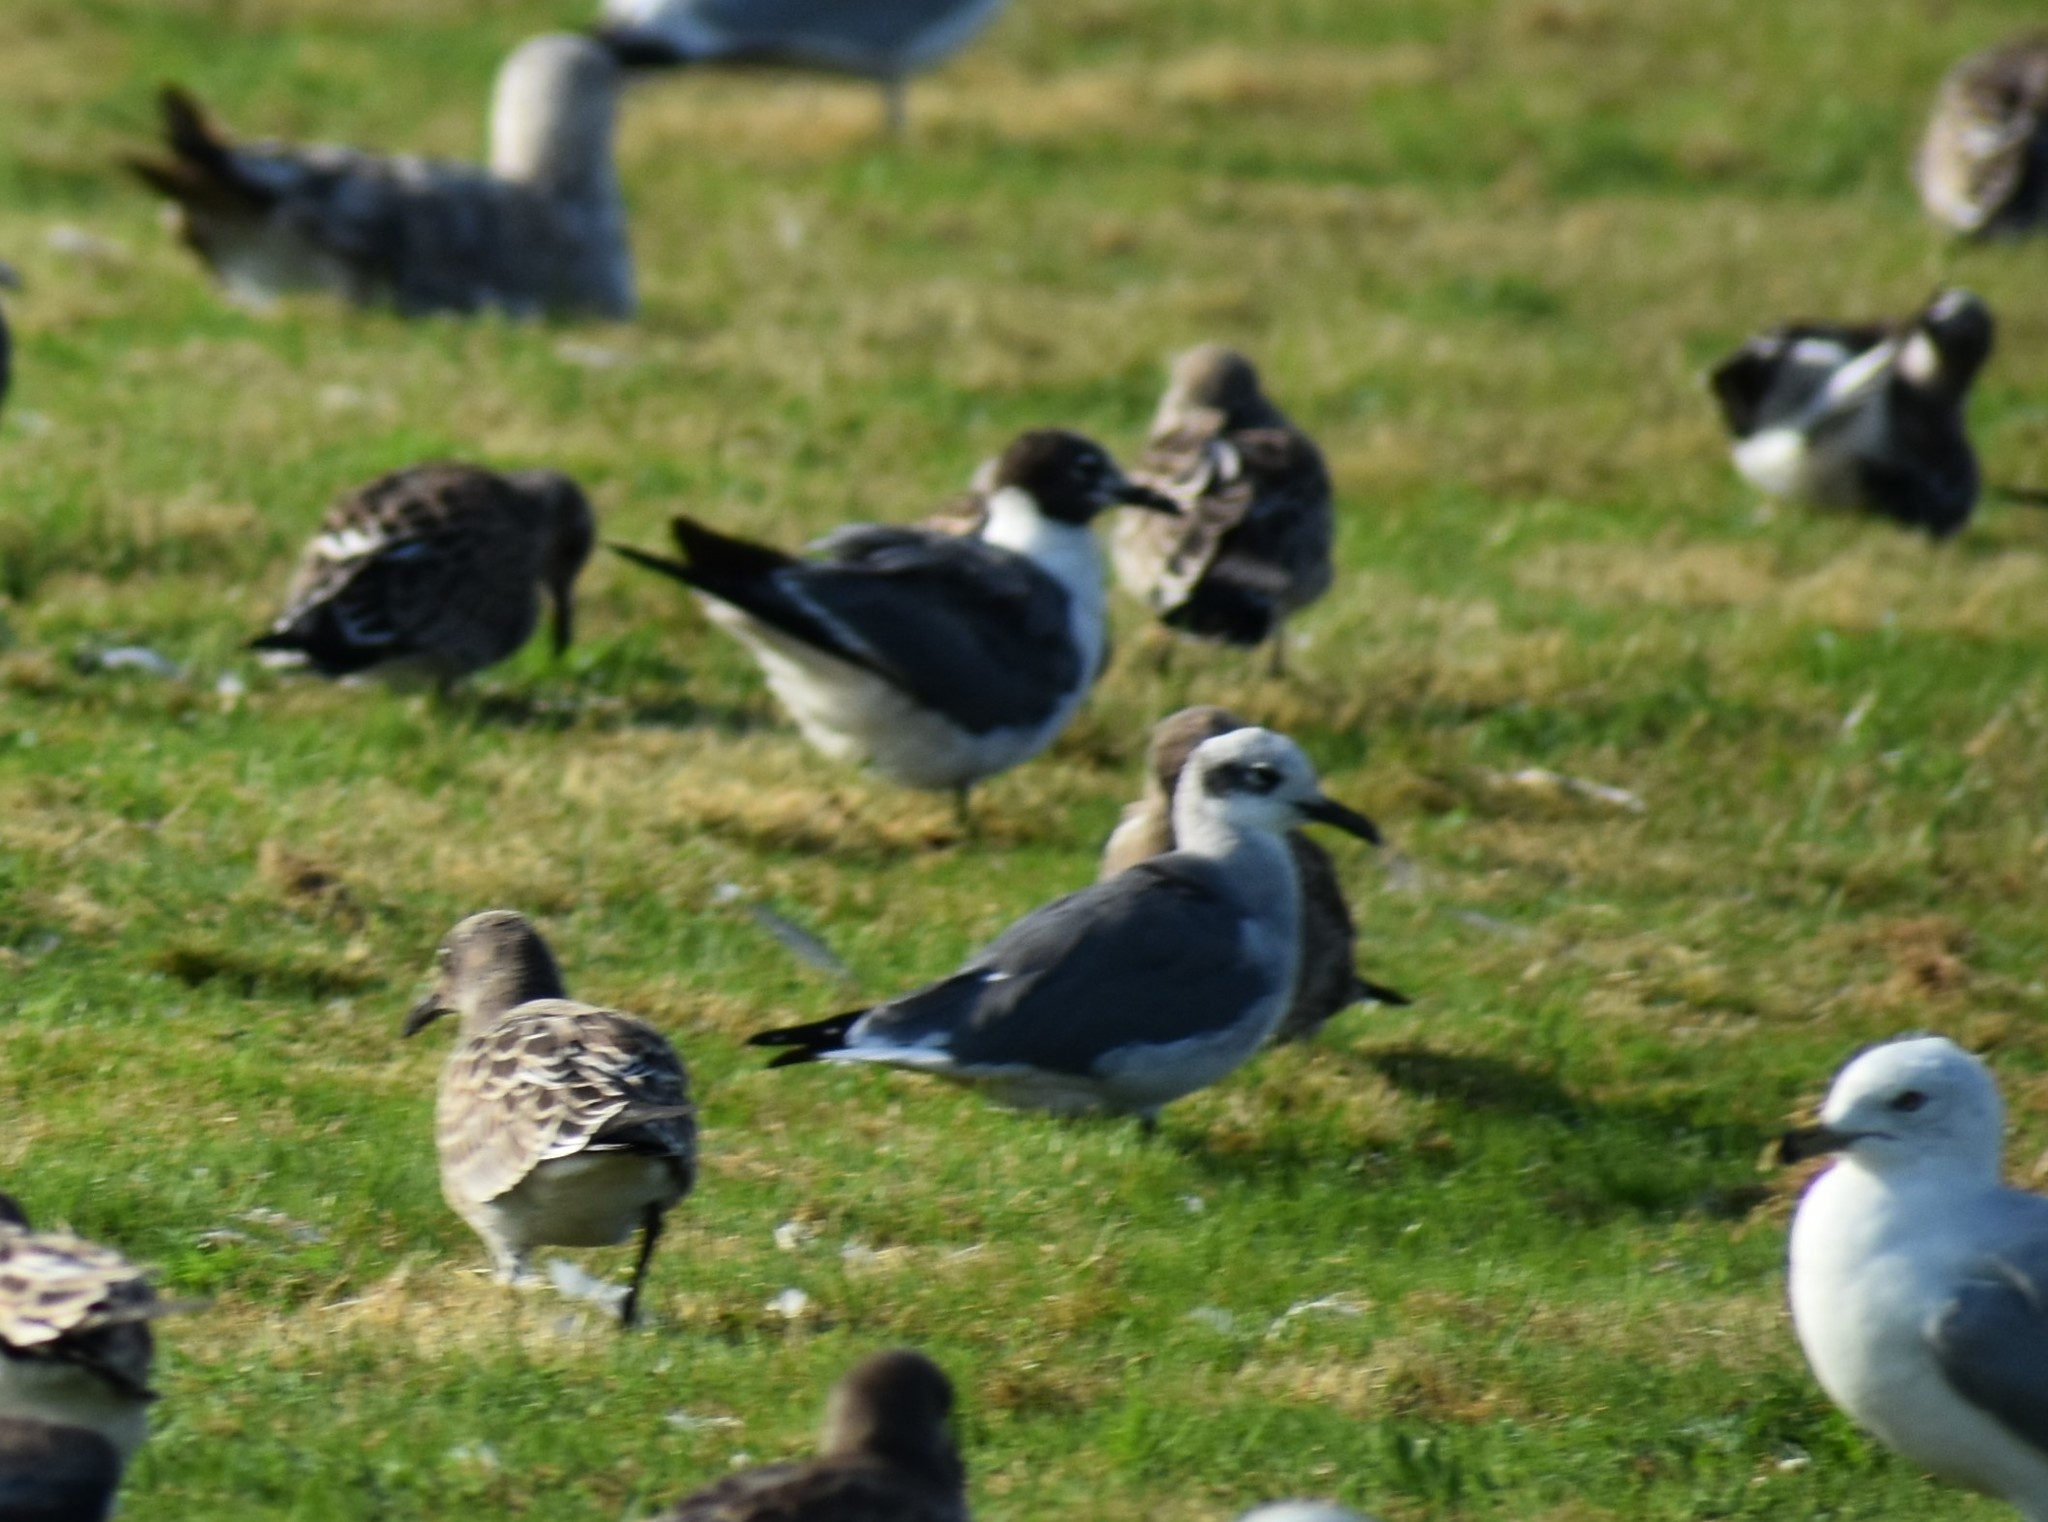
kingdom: Animalia
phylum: Chordata
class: Aves
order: Charadriiformes
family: Laridae
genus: Leucophaeus
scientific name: Leucophaeus atricilla
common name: Laughing gull
